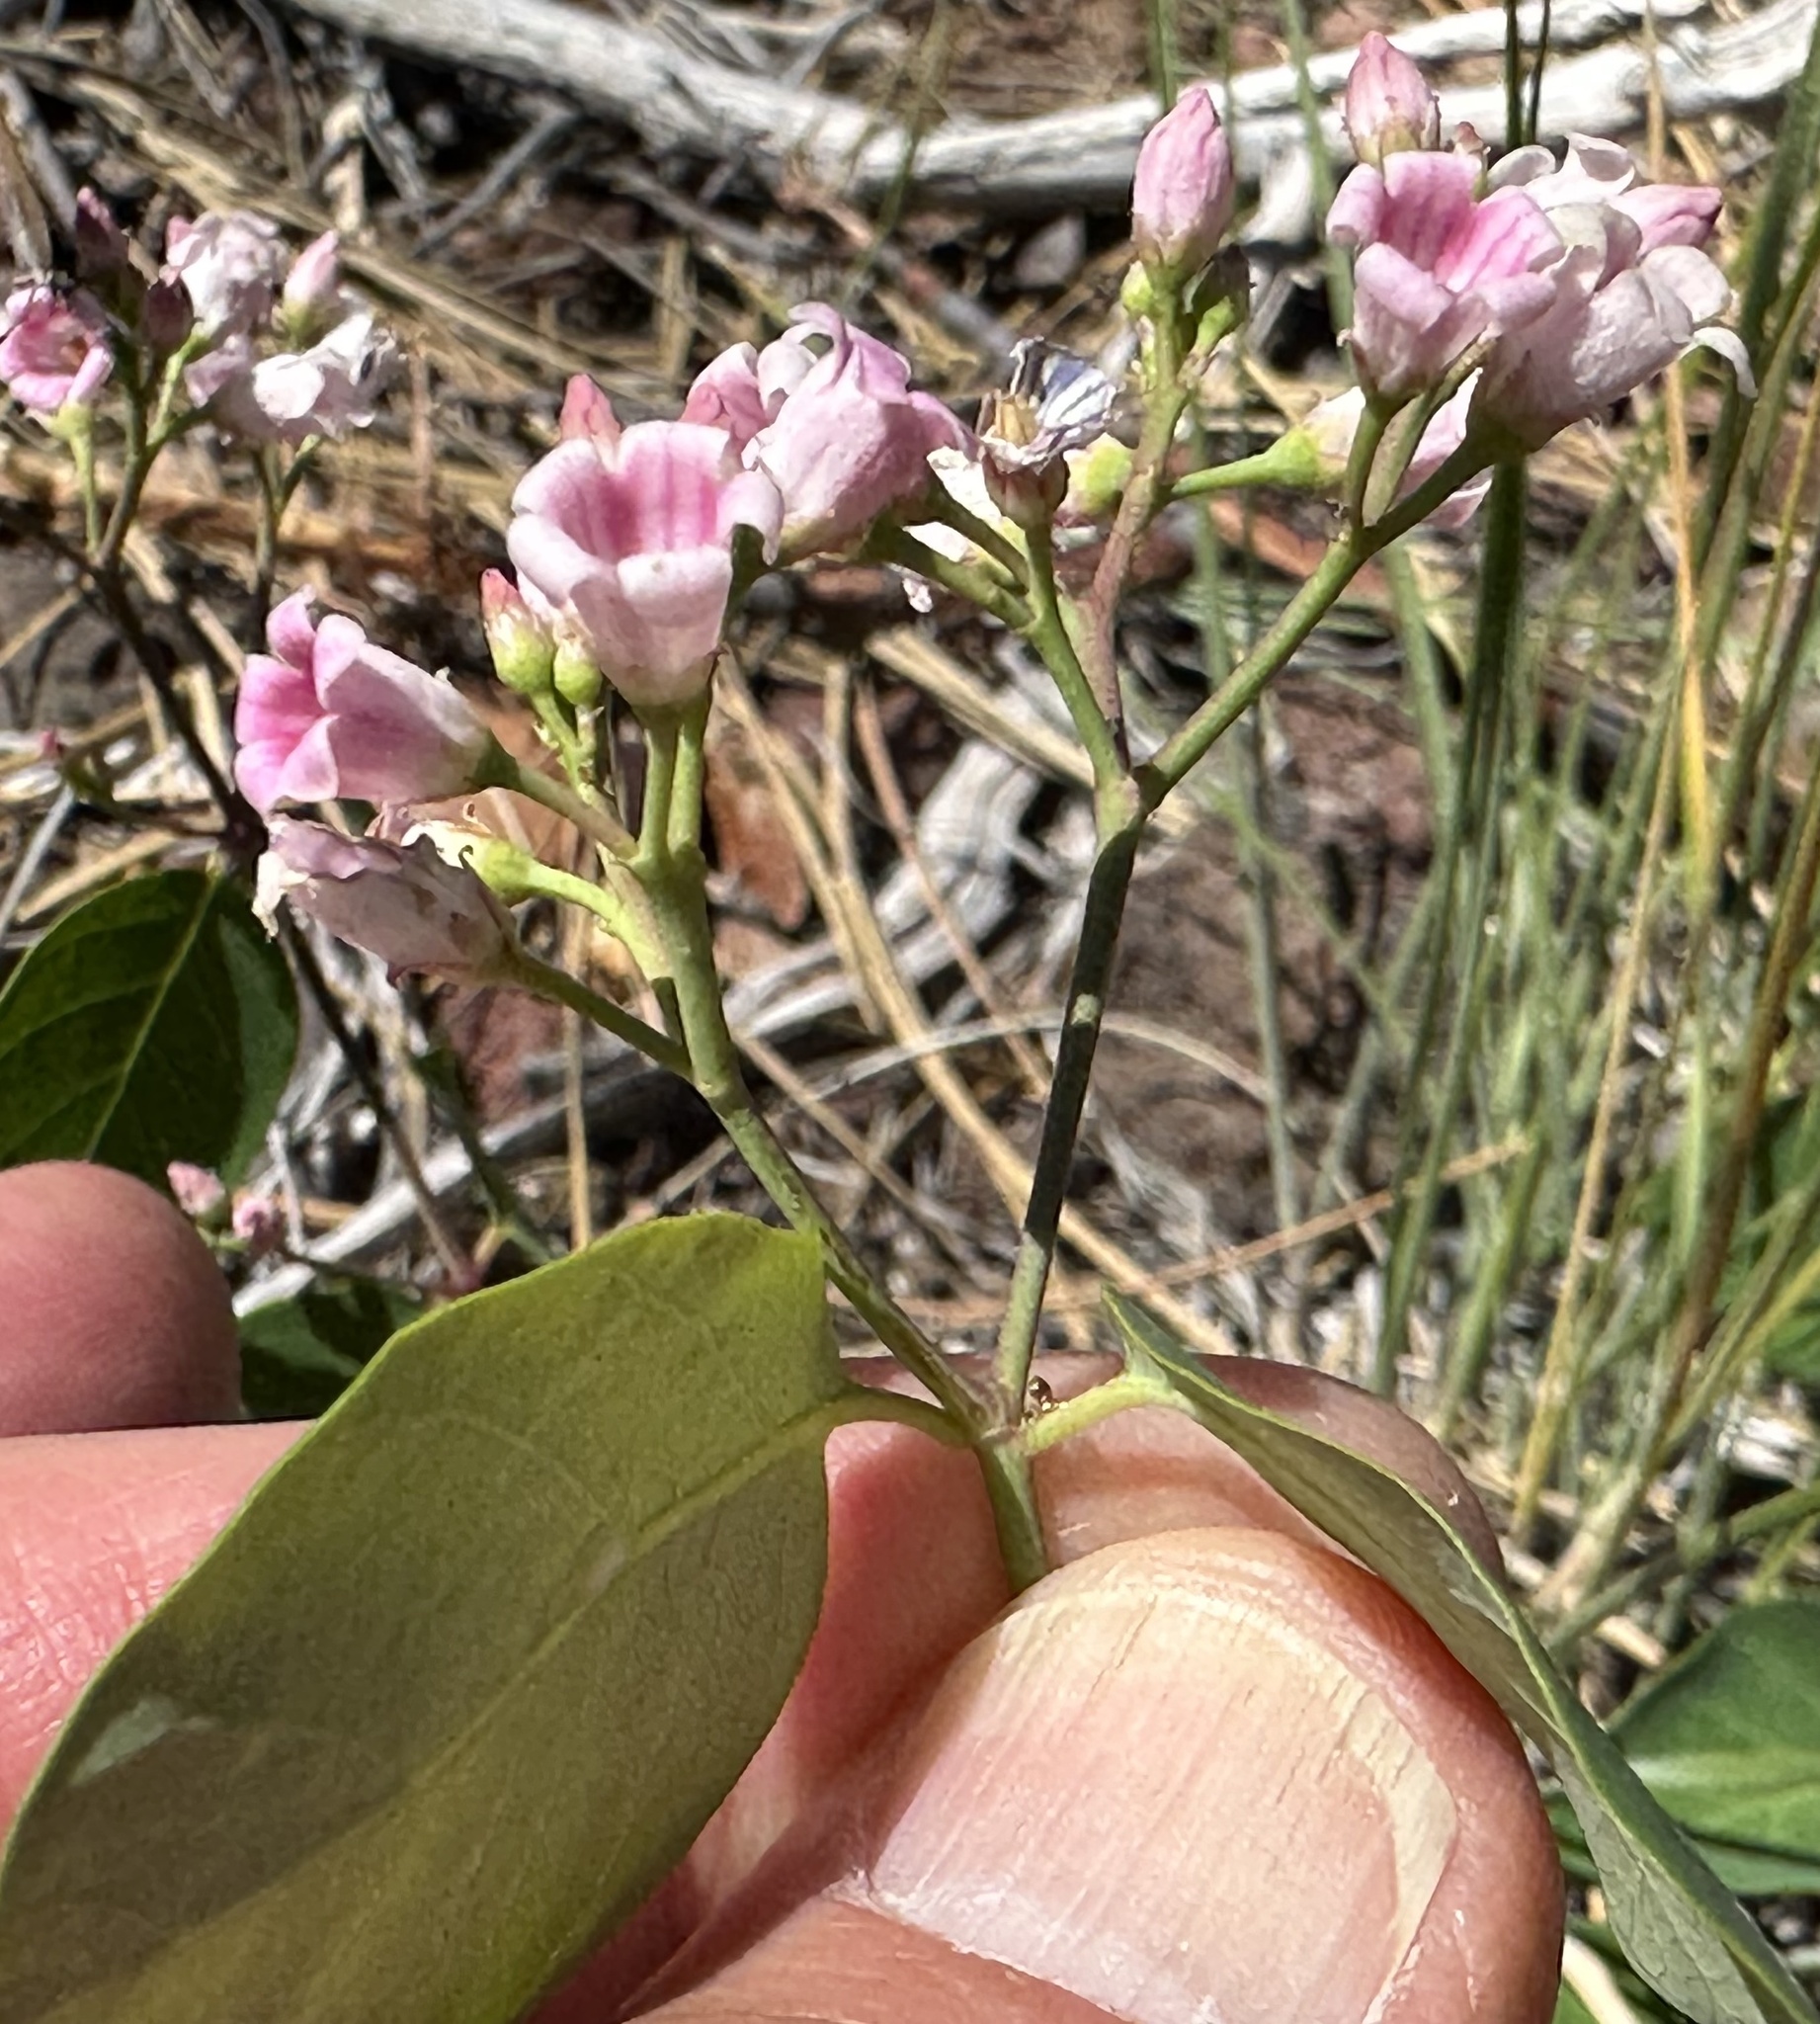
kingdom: Plantae
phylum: Tracheophyta
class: Magnoliopsida
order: Gentianales
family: Apocynaceae
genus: Apocynum
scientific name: Apocynum androsaemifolium
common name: Spreading dogbane
